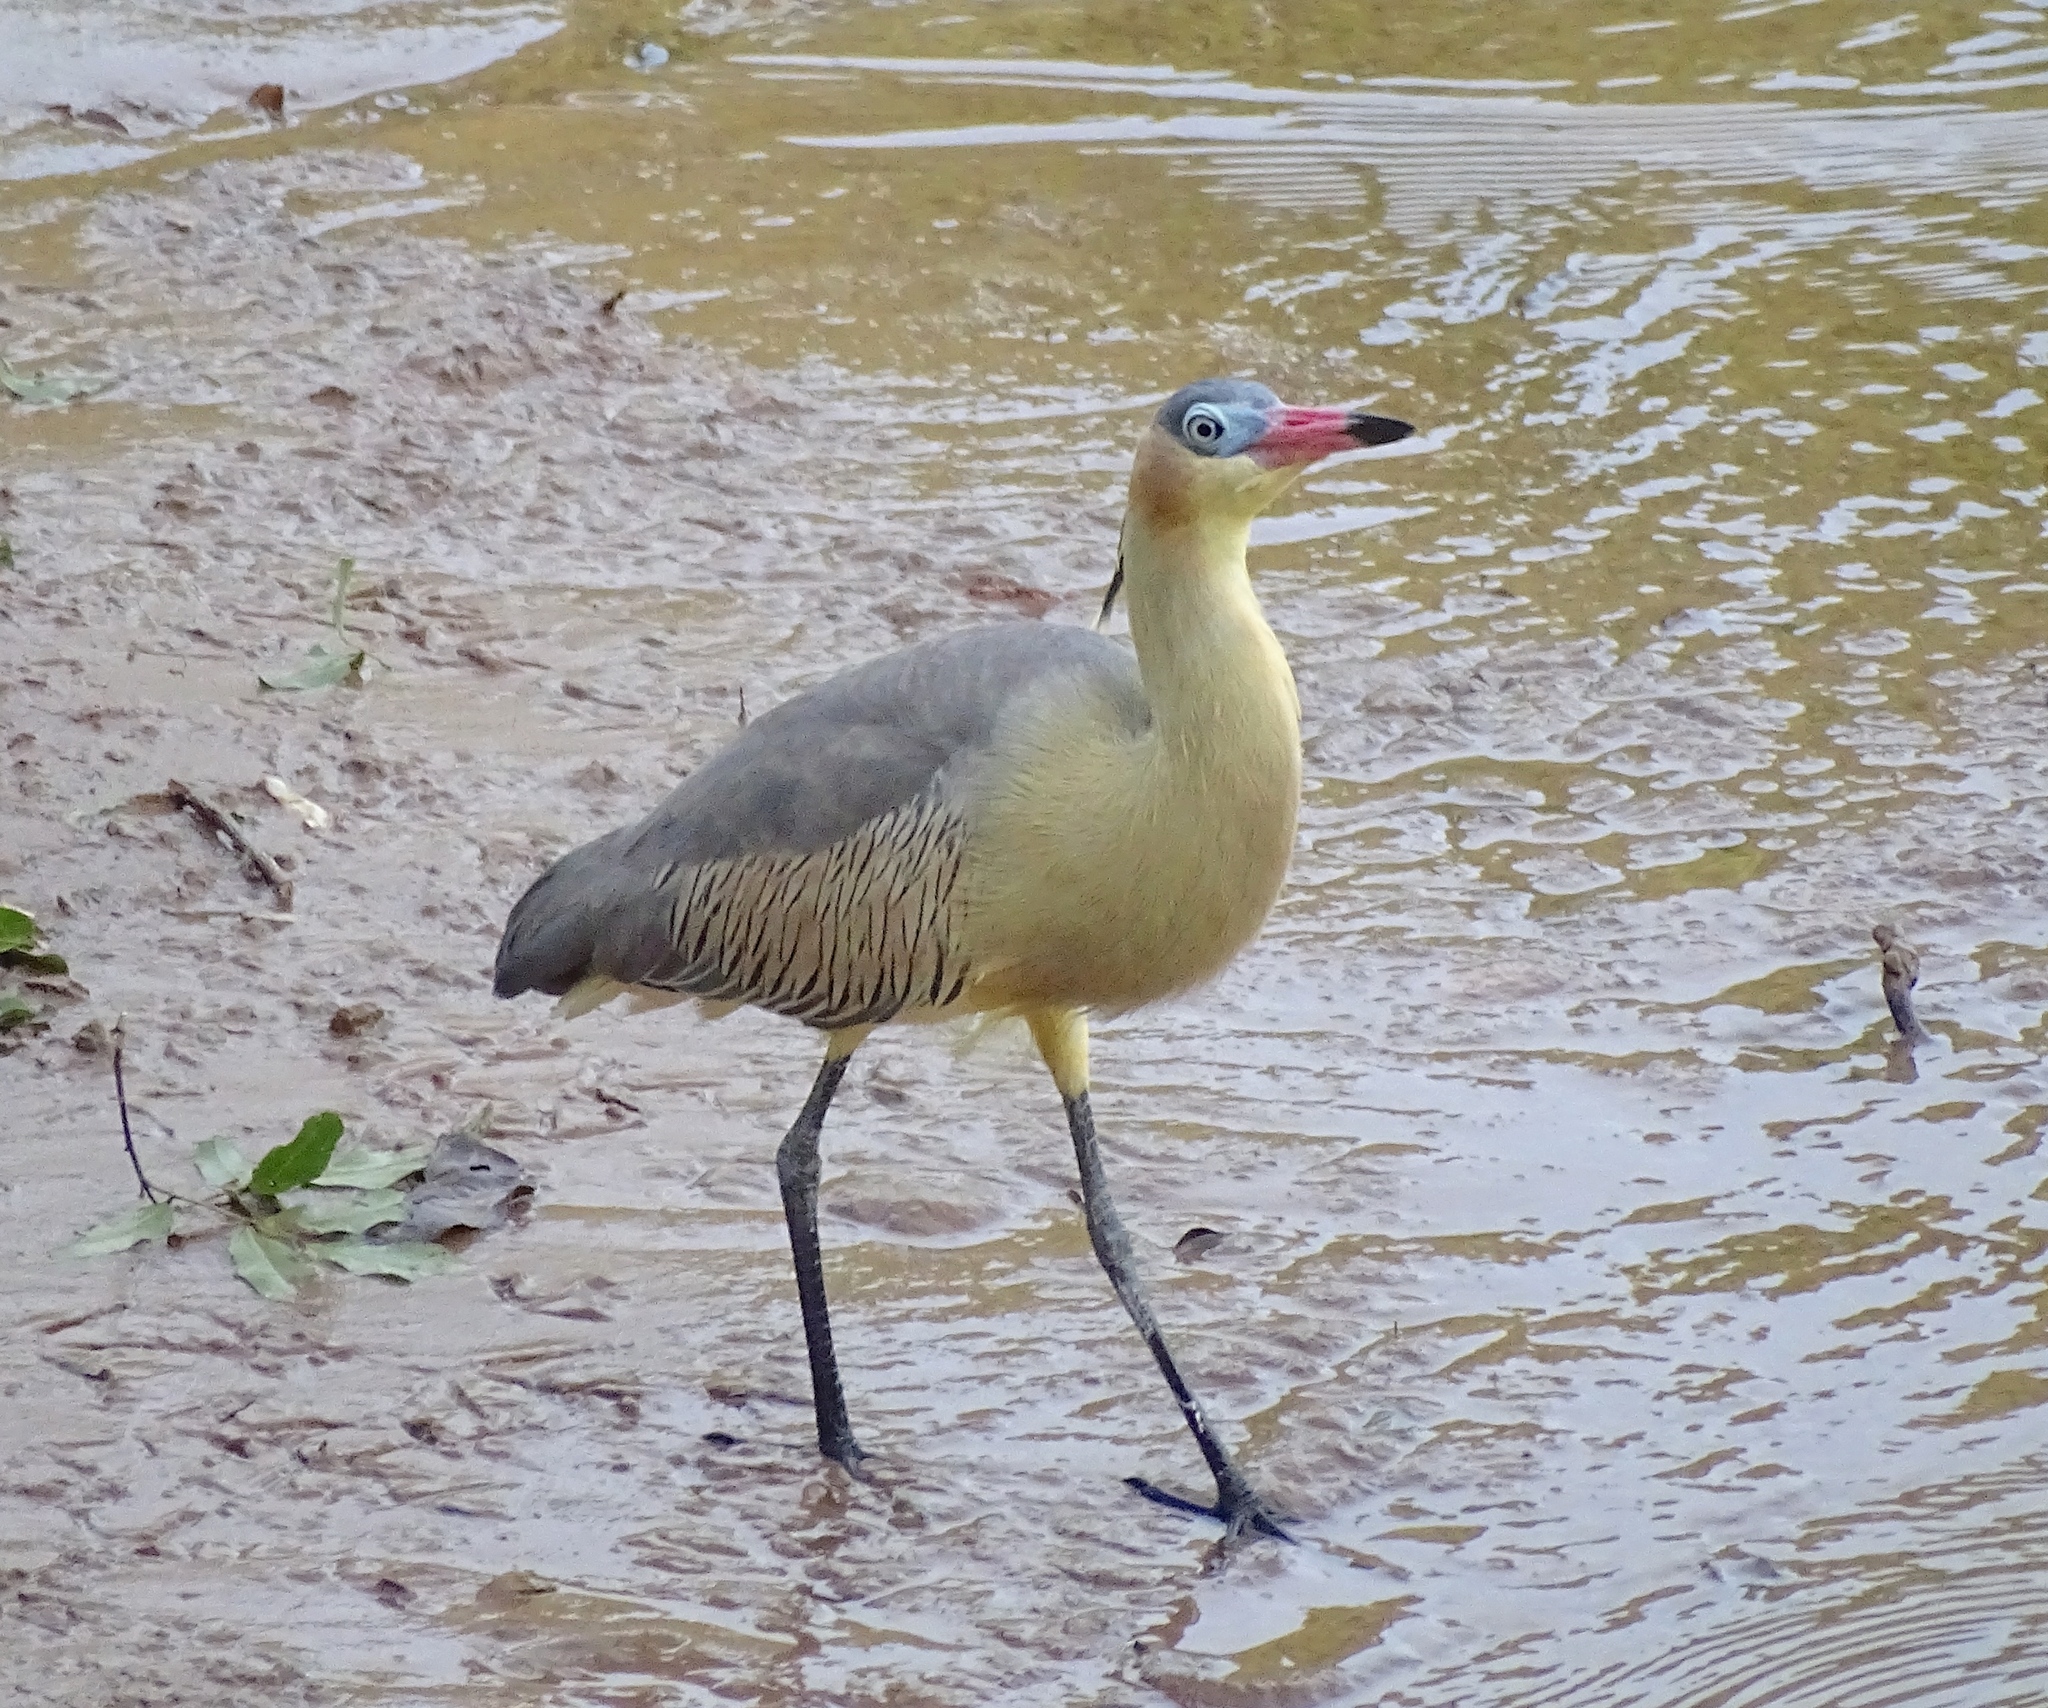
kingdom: Animalia
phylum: Chordata
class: Aves
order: Pelecaniformes
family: Ardeidae
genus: Syrigma
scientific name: Syrigma sibilatrix
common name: Whistling heron
